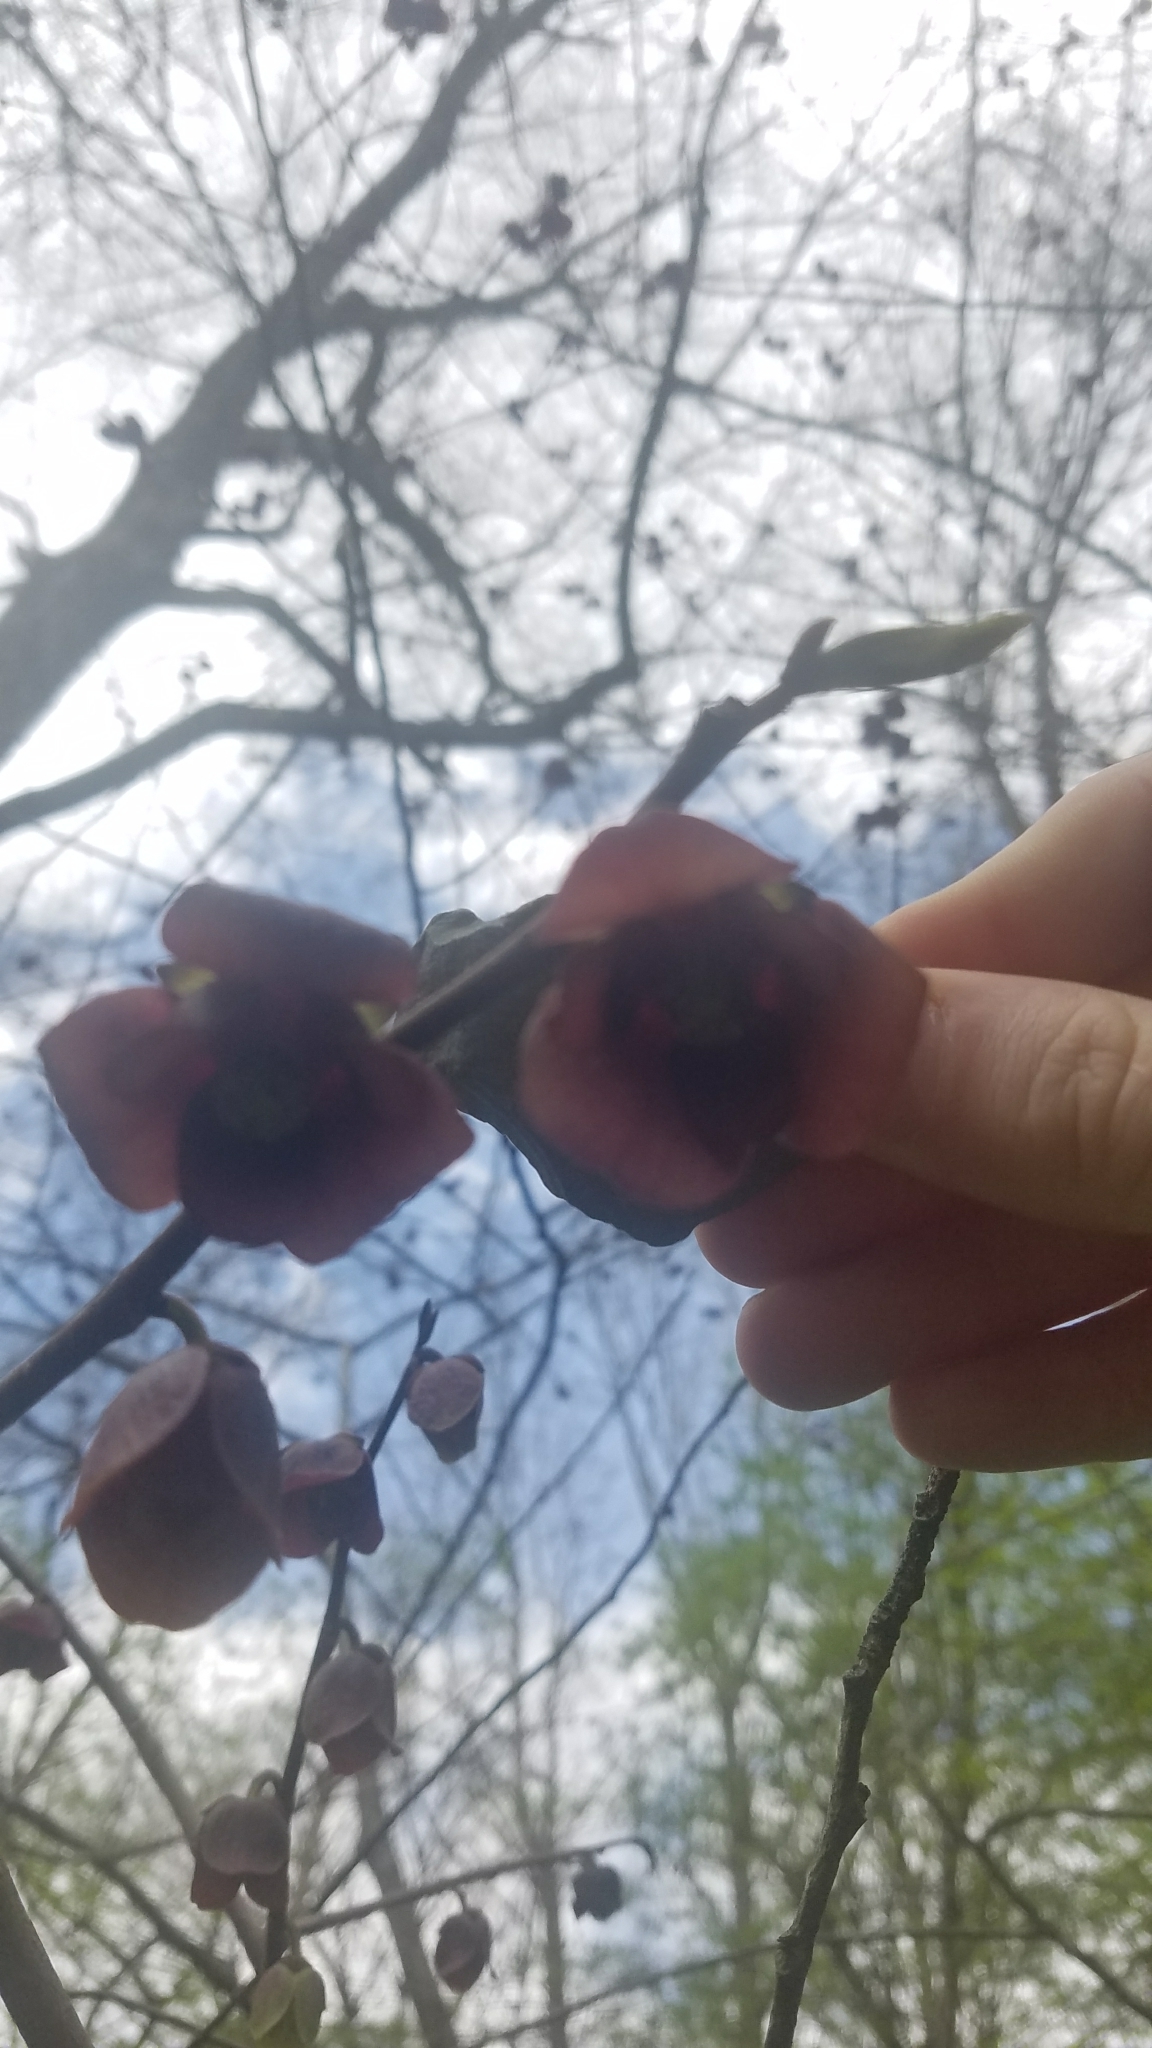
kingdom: Plantae
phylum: Tracheophyta
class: Magnoliopsida
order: Magnoliales
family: Annonaceae
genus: Asimina
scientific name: Asimina triloba
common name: Dog-banana
